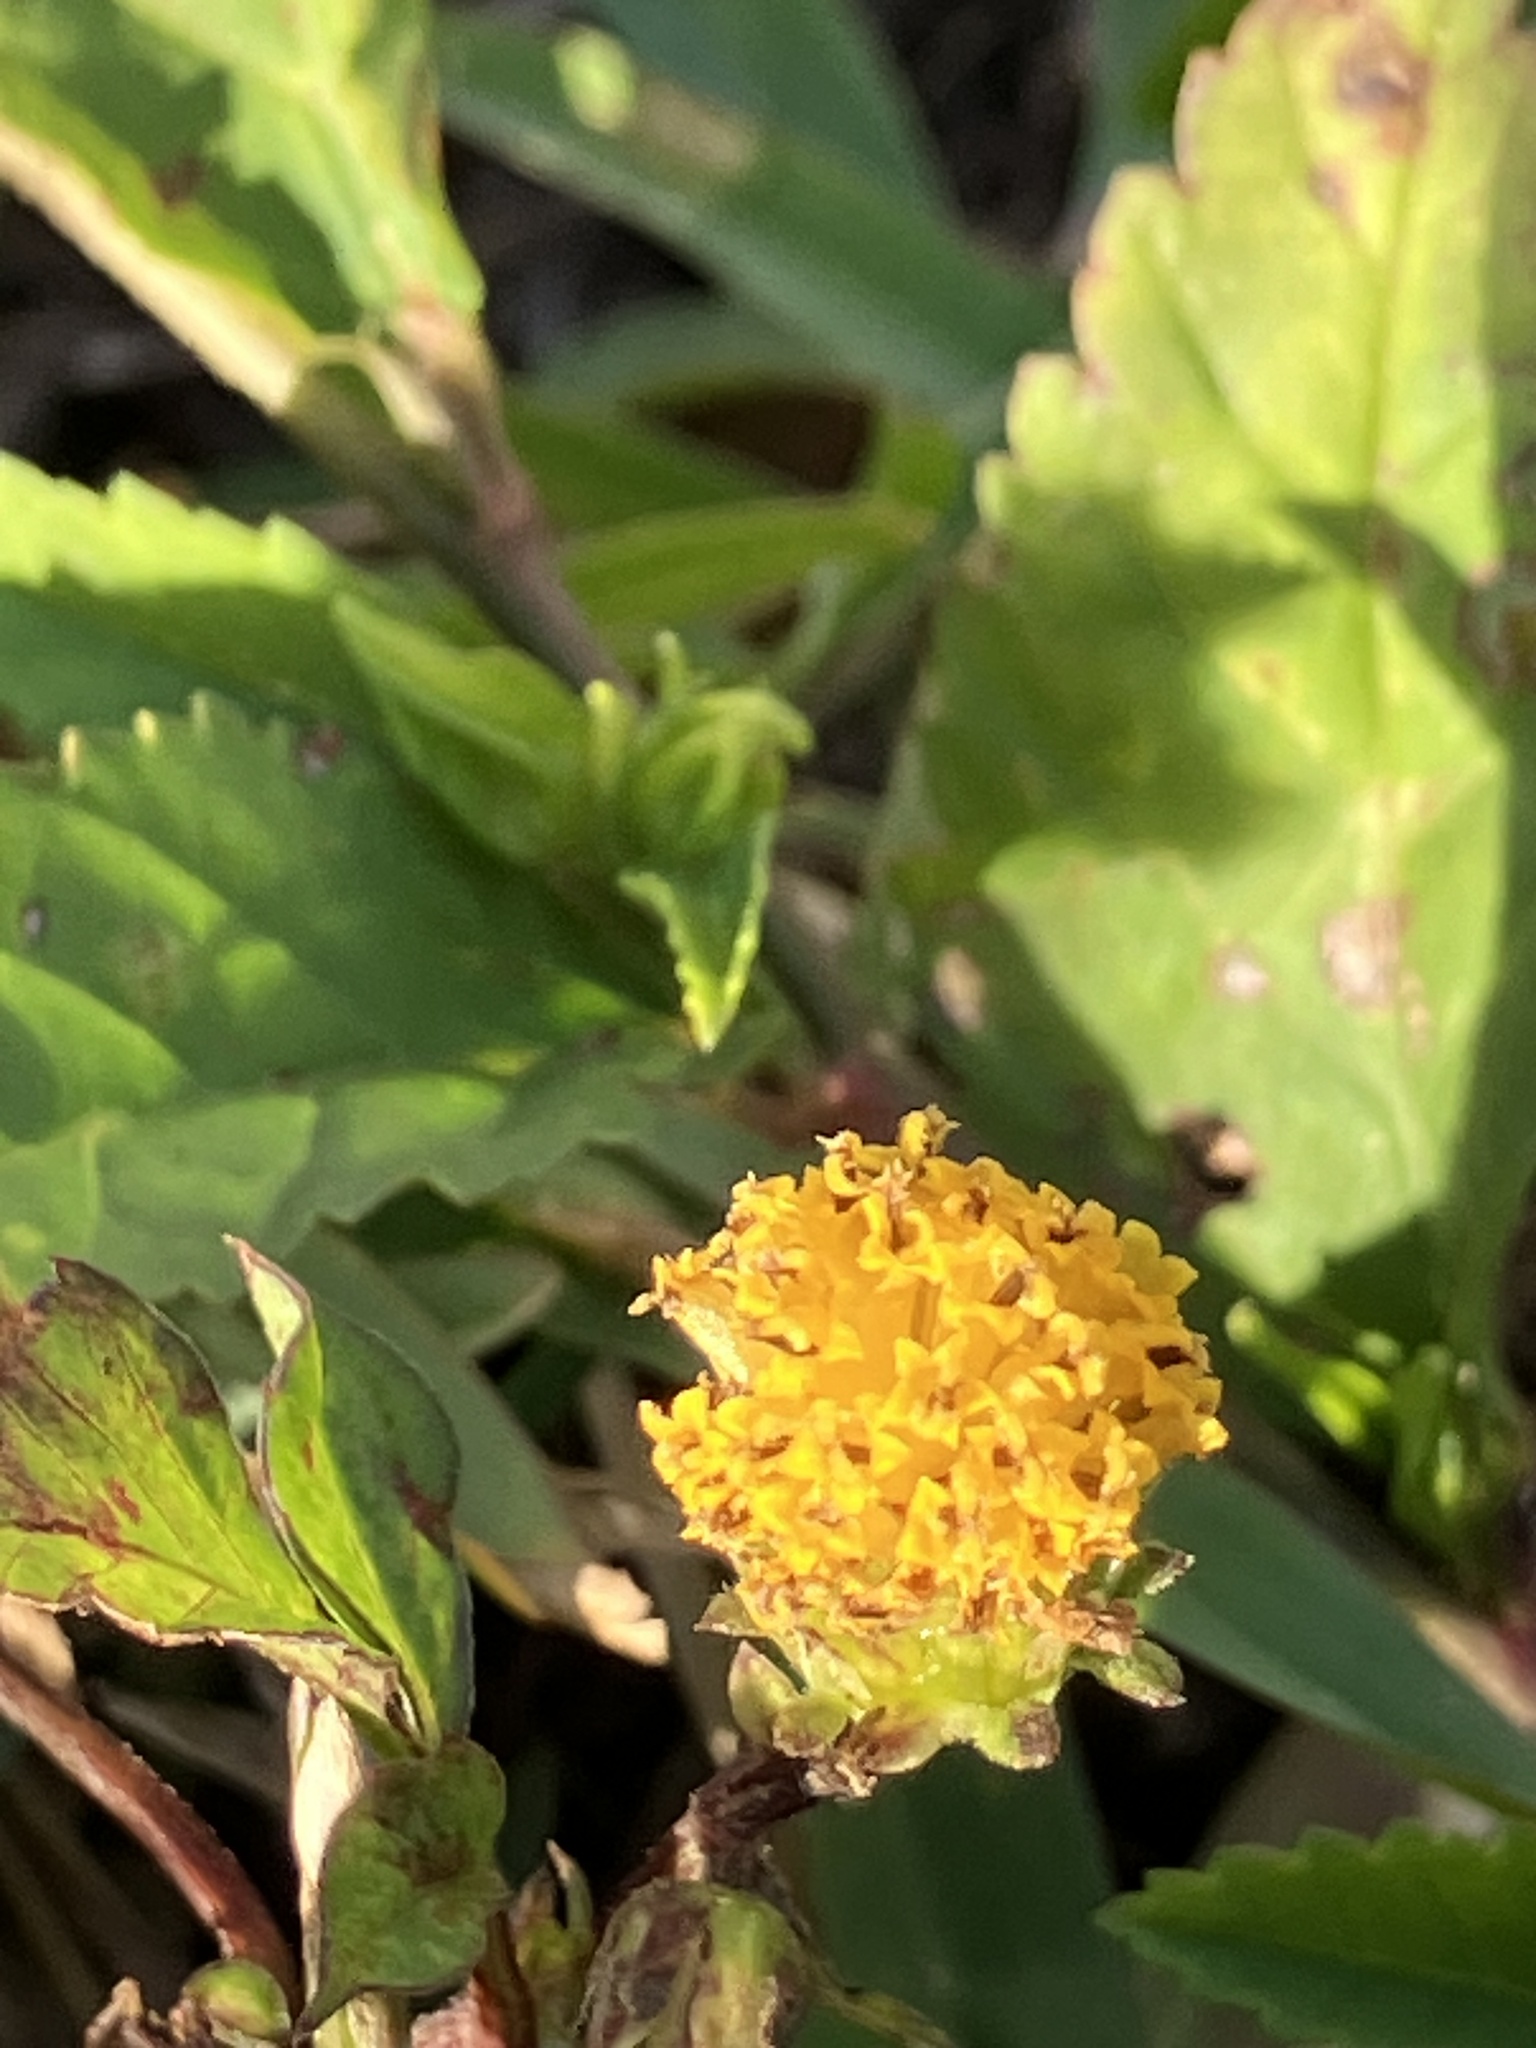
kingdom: Plantae
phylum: Tracheophyta
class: Magnoliopsida
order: Asterales
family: Asteraceae
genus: Bidens
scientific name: Bidens alba
